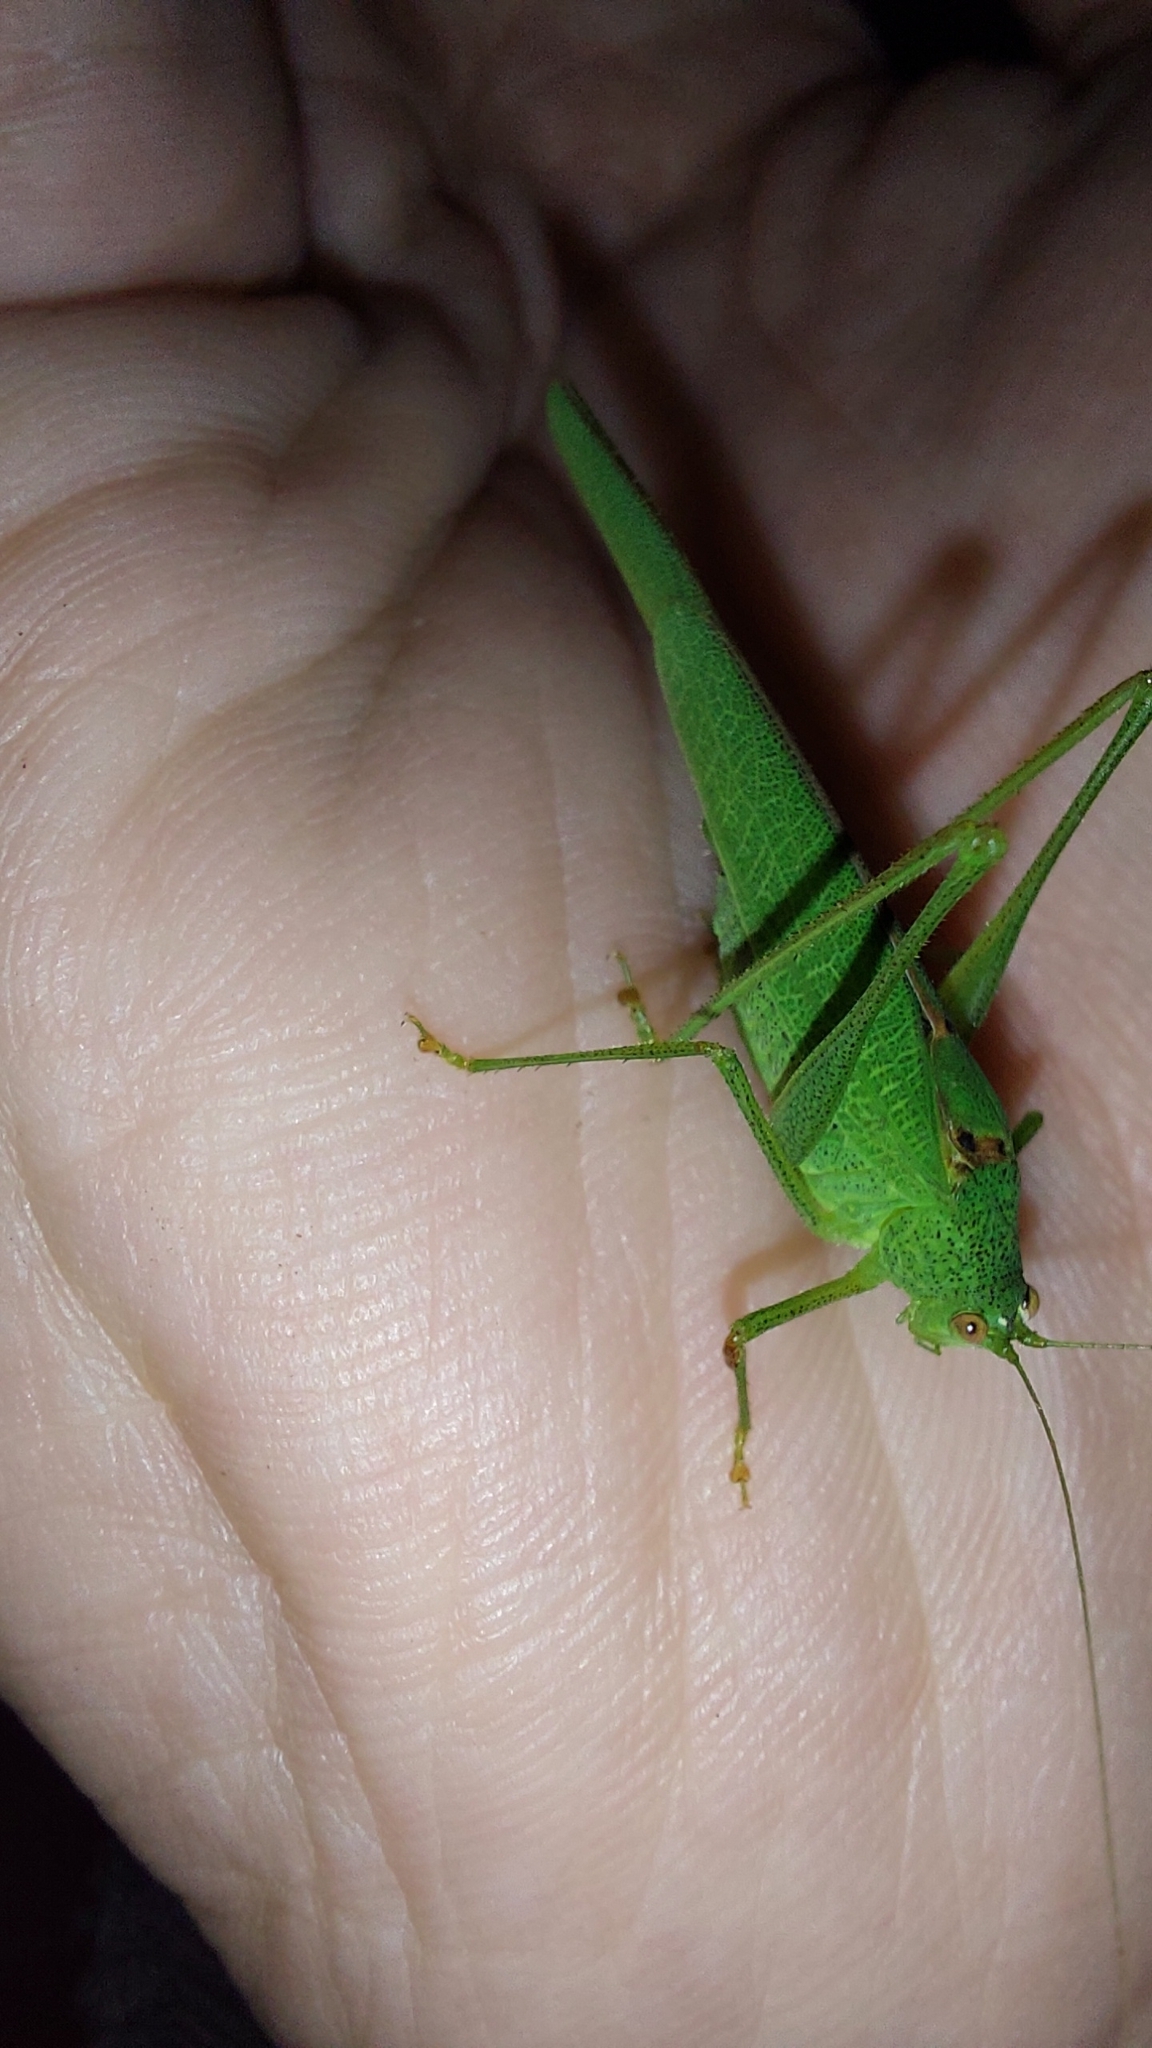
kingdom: Animalia
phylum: Arthropoda
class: Insecta
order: Orthoptera
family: Tettigoniidae
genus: Phaneroptera
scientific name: Phaneroptera nana
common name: Southern sickle bush-cricket
